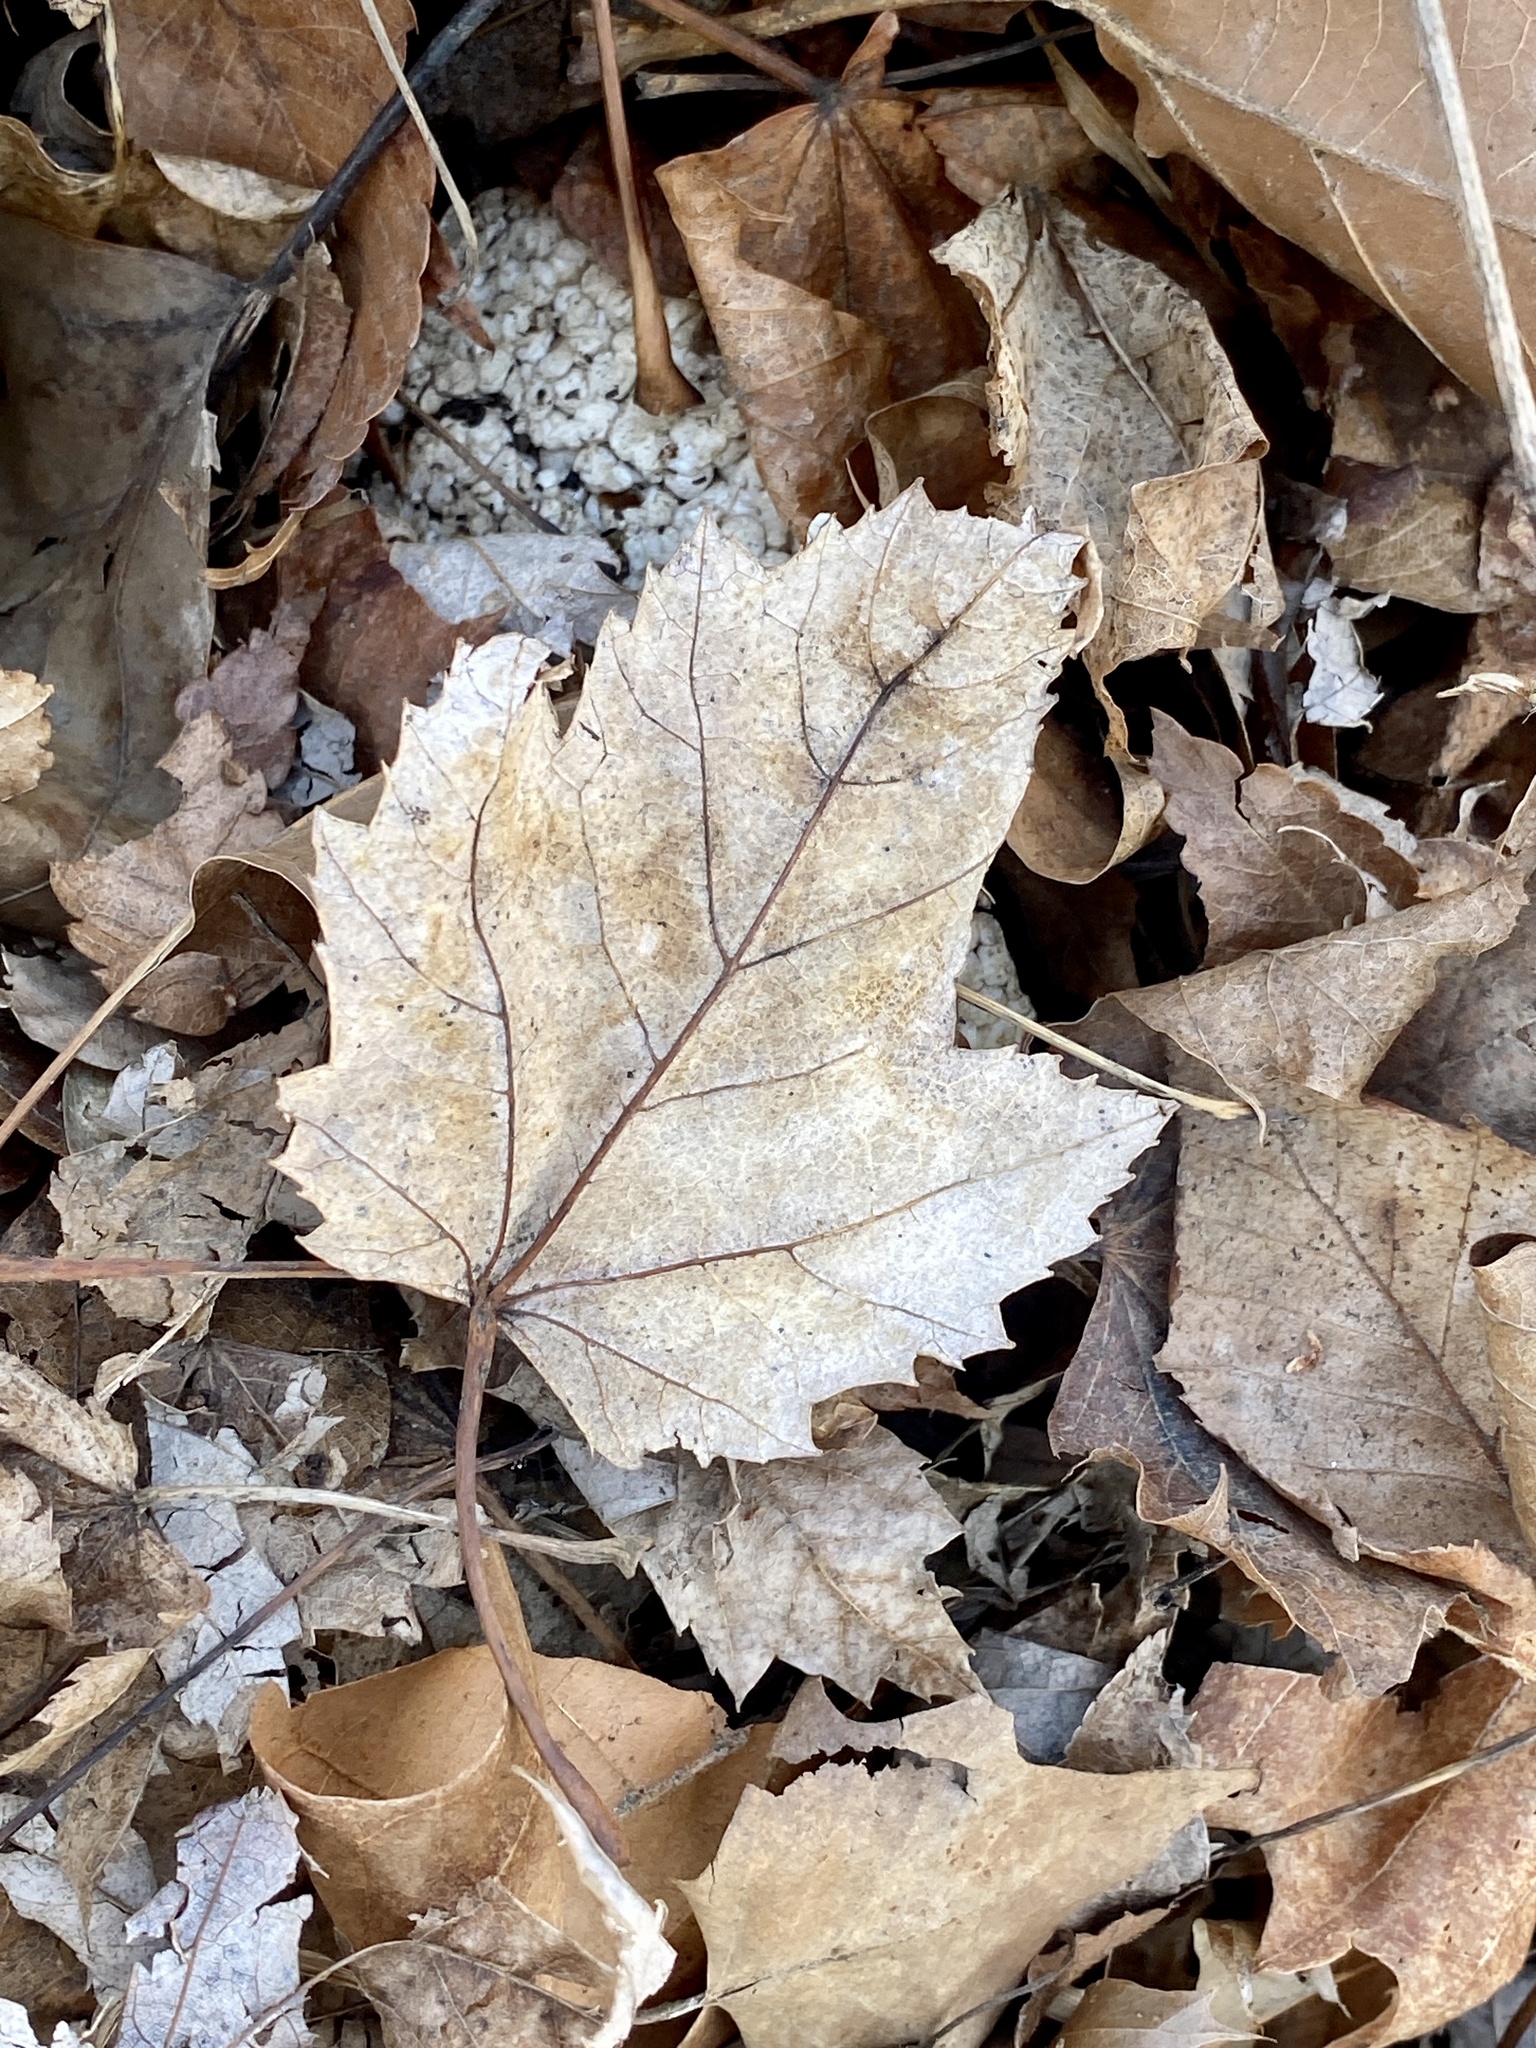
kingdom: Plantae
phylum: Tracheophyta
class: Magnoliopsida
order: Sapindales
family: Sapindaceae
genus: Acer
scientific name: Acer rubrum
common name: Red maple
